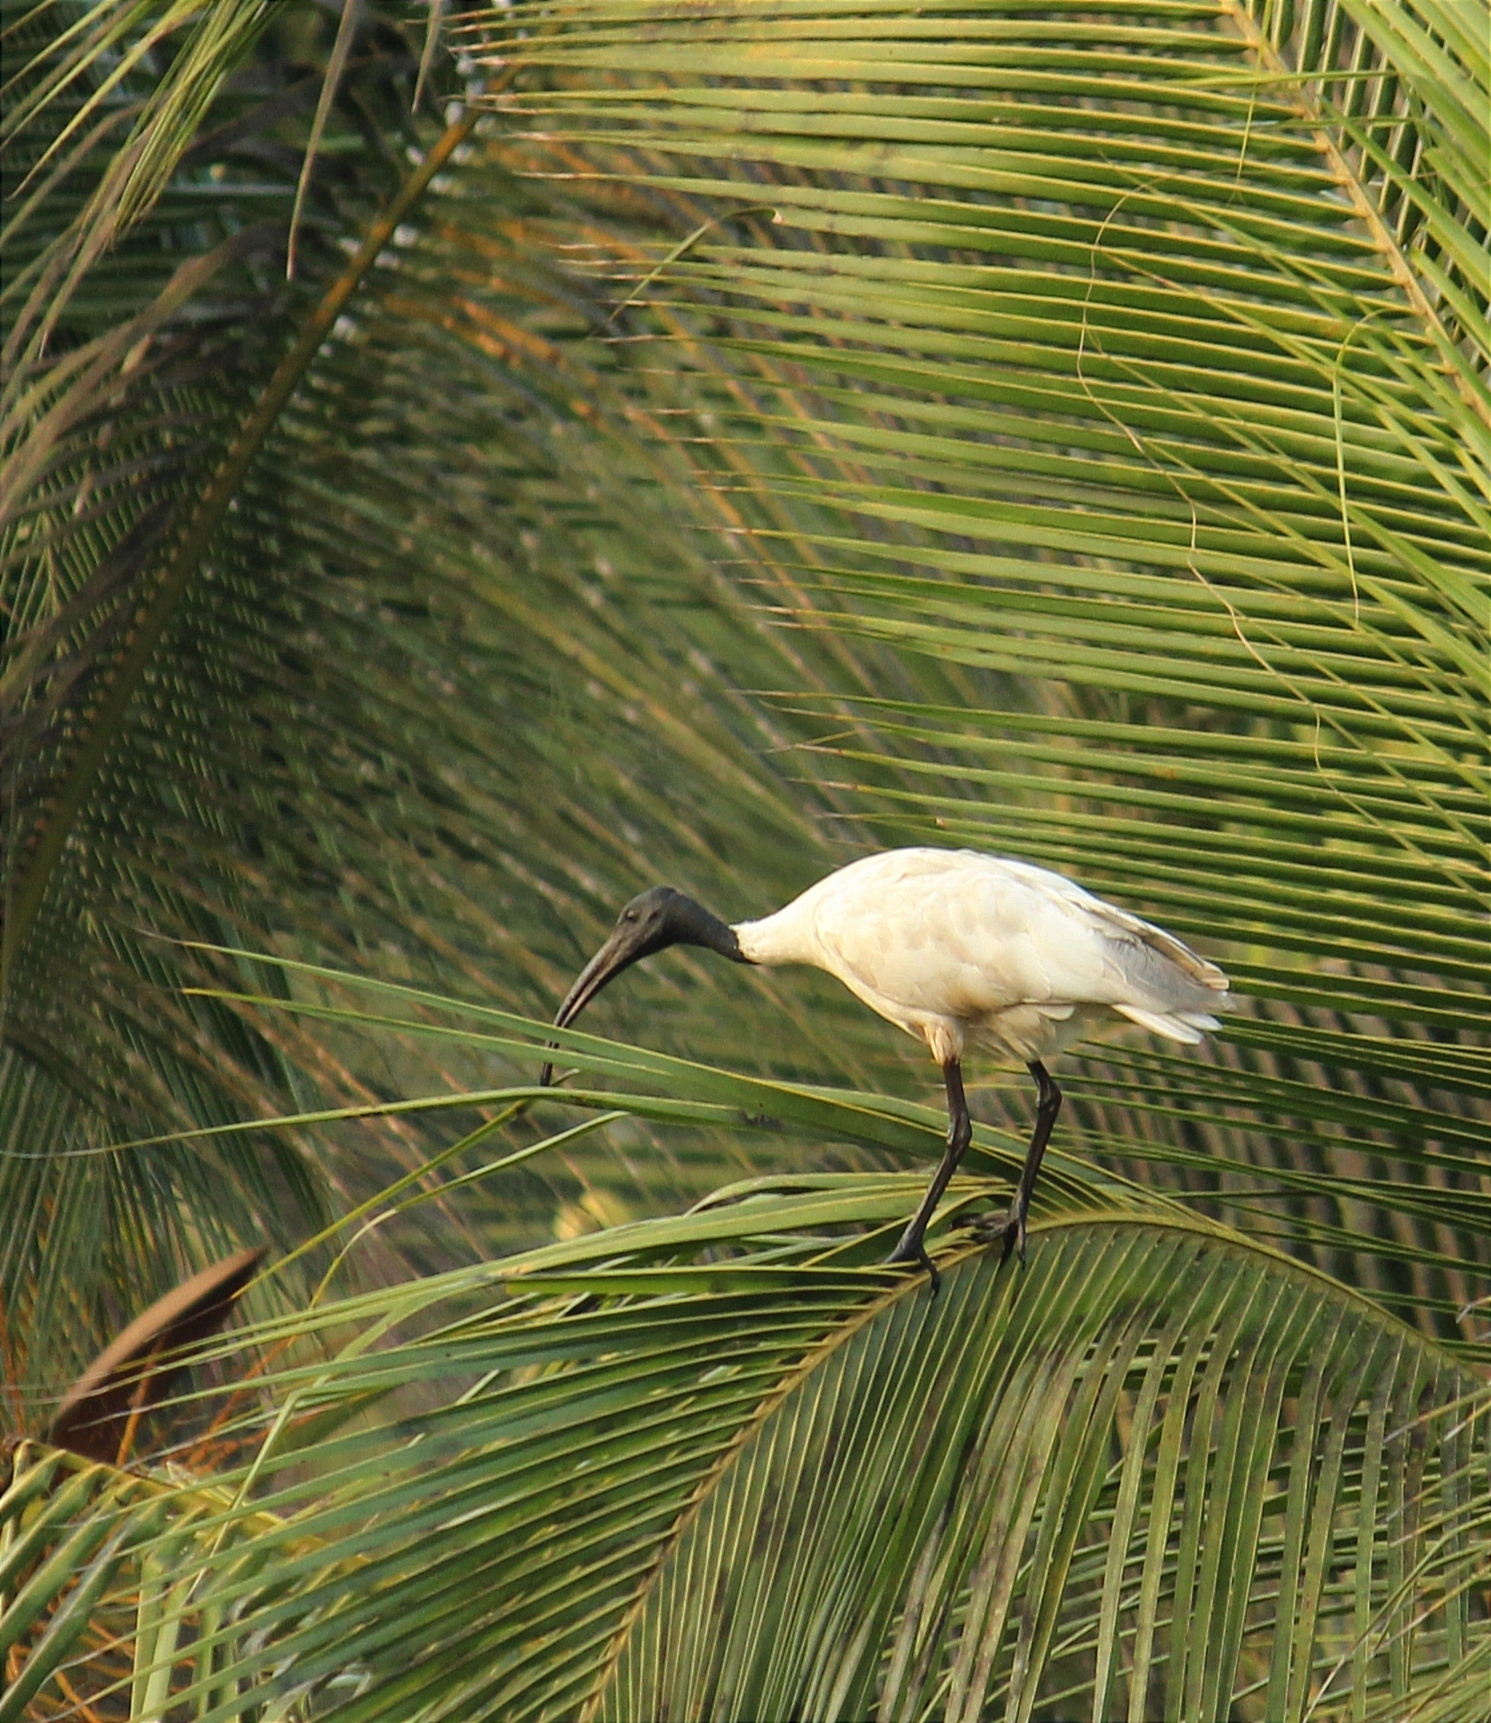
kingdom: Animalia
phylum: Chordata
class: Aves
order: Pelecaniformes
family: Threskiornithidae
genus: Threskiornis
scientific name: Threskiornis melanocephalus
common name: Black-headed ibis
